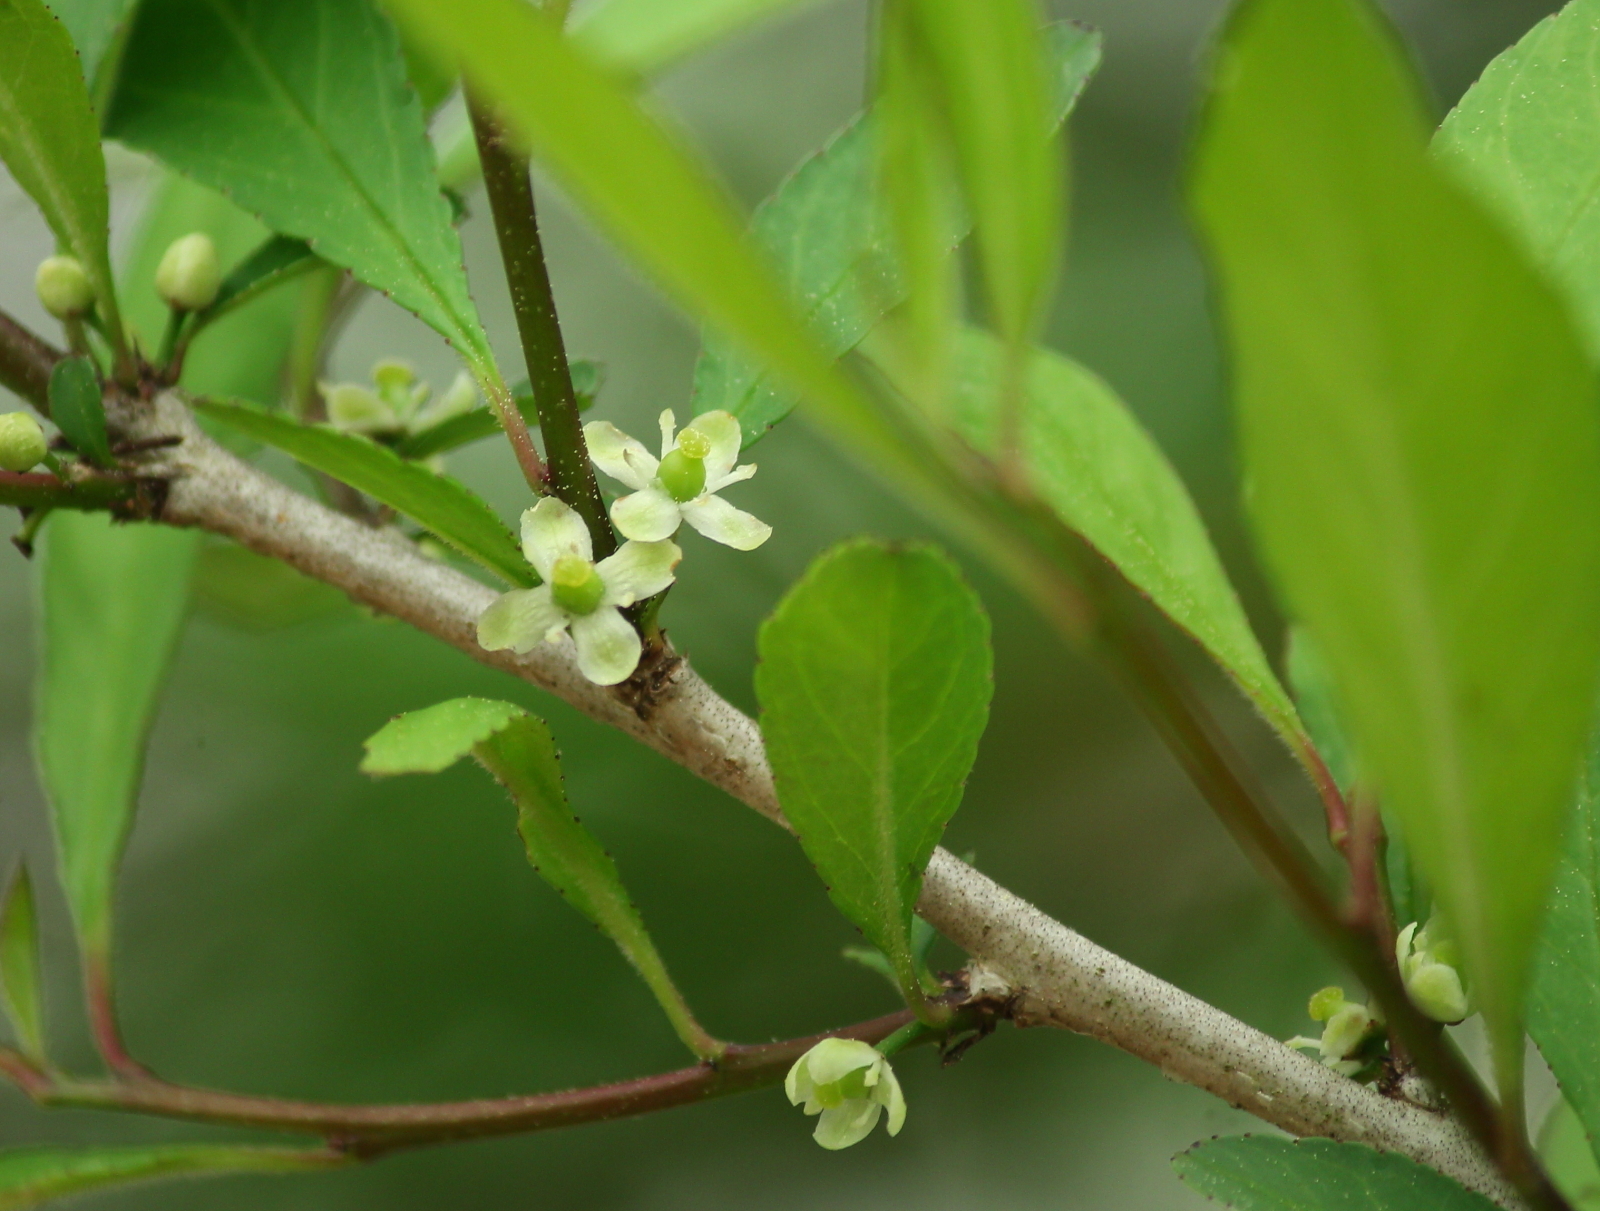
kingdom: Plantae
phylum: Tracheophyta
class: Magnoliopsida
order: Aquifoliales
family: Aquifoliaceae
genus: Ilex
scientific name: Ilex decidua
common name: Possum-haw
